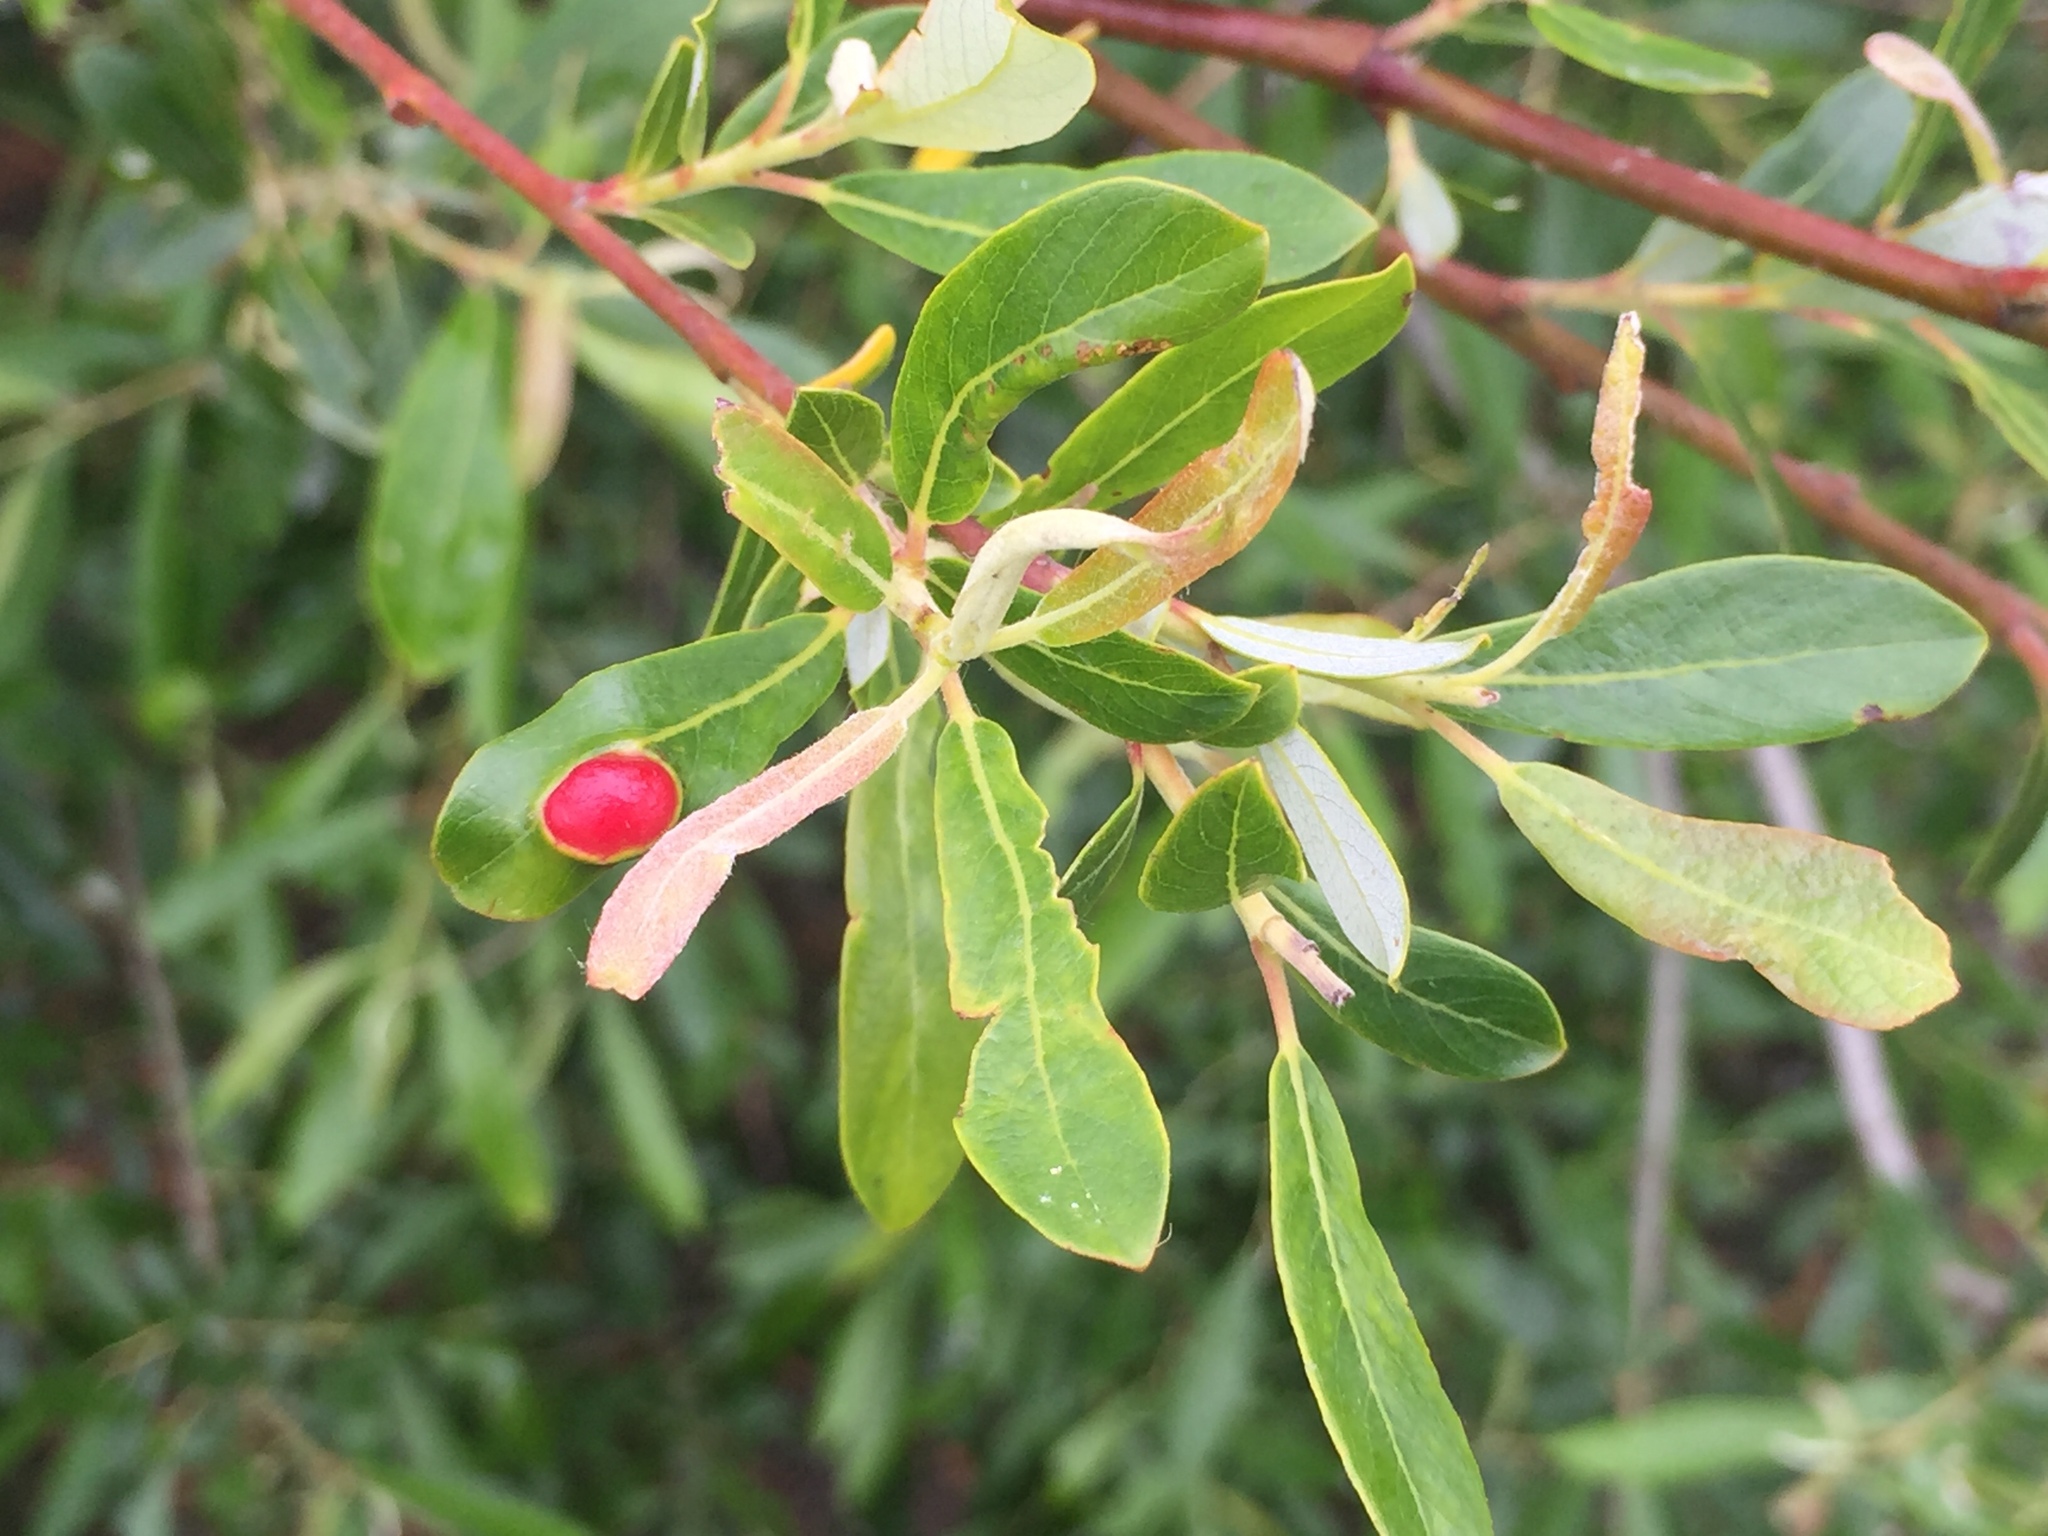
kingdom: Animalia
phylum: Arthropoda
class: Insecta
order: Hymenoptera
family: Tenthredinidae
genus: Euura
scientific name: Euura
